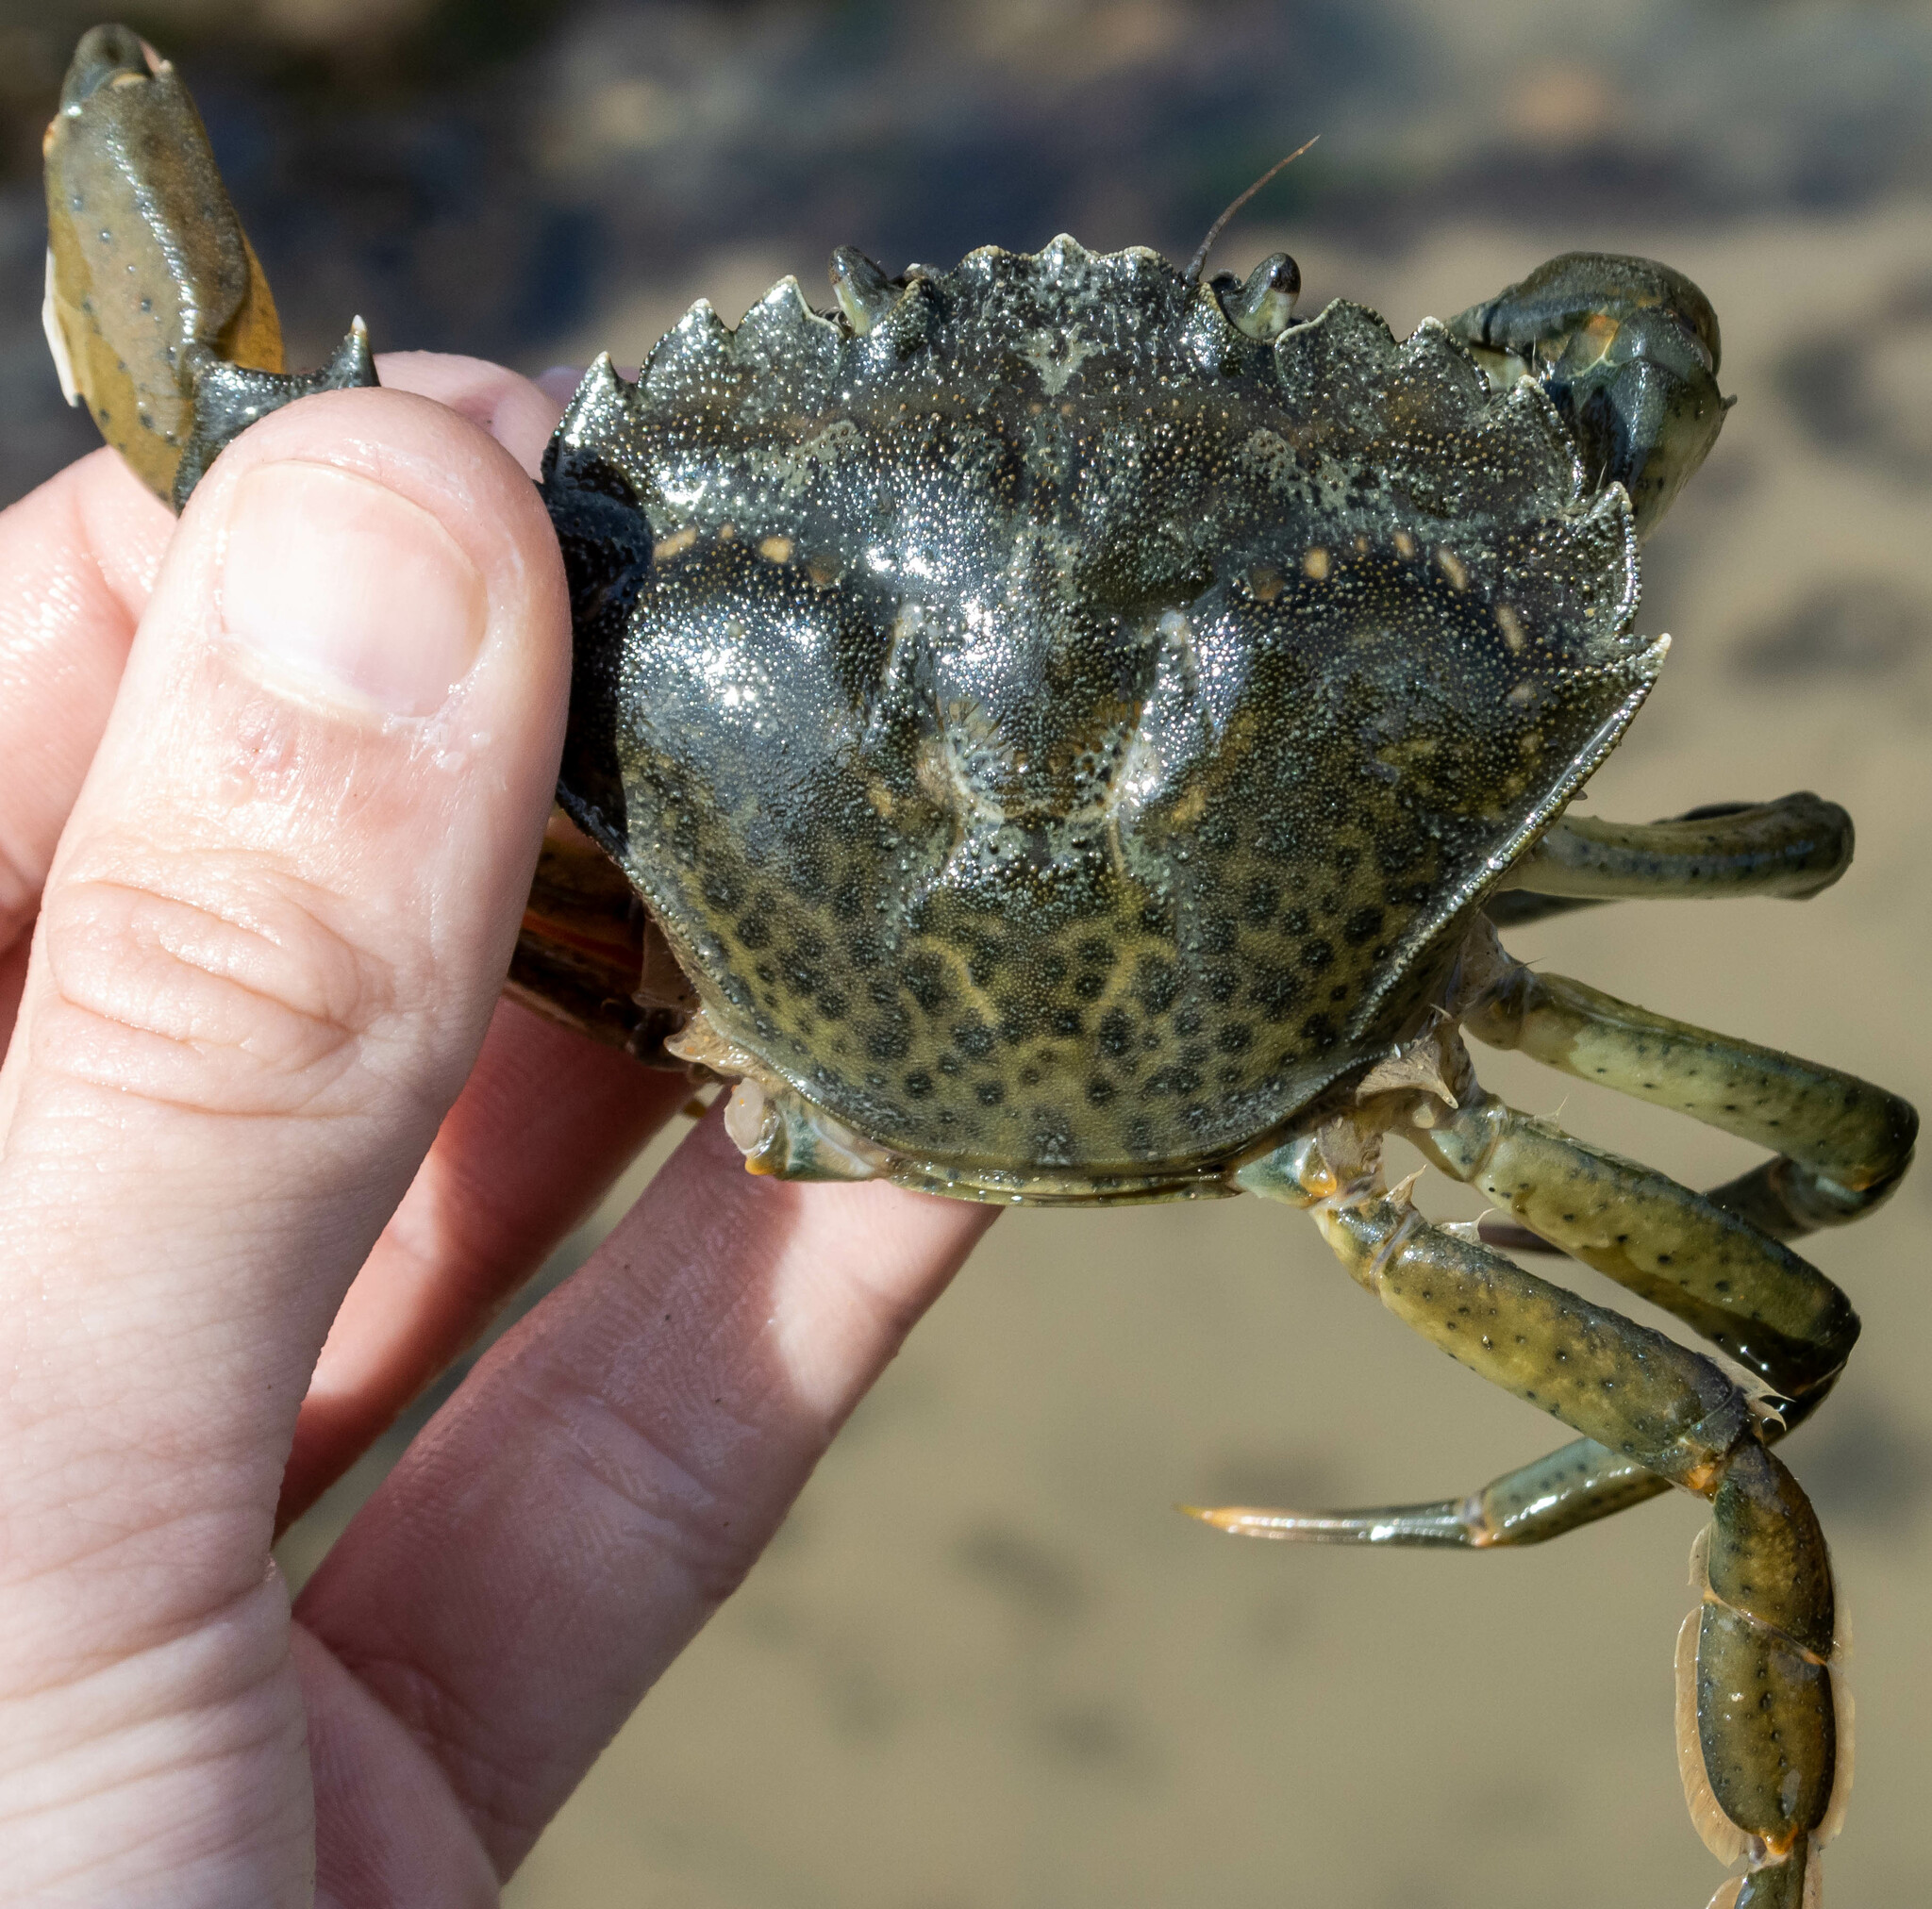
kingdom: Animalia
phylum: Arthropoda
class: Malacostraca
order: Decapoda
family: Carcinidae
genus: Carcinus
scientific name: Carcinus maenas
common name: European green crab
